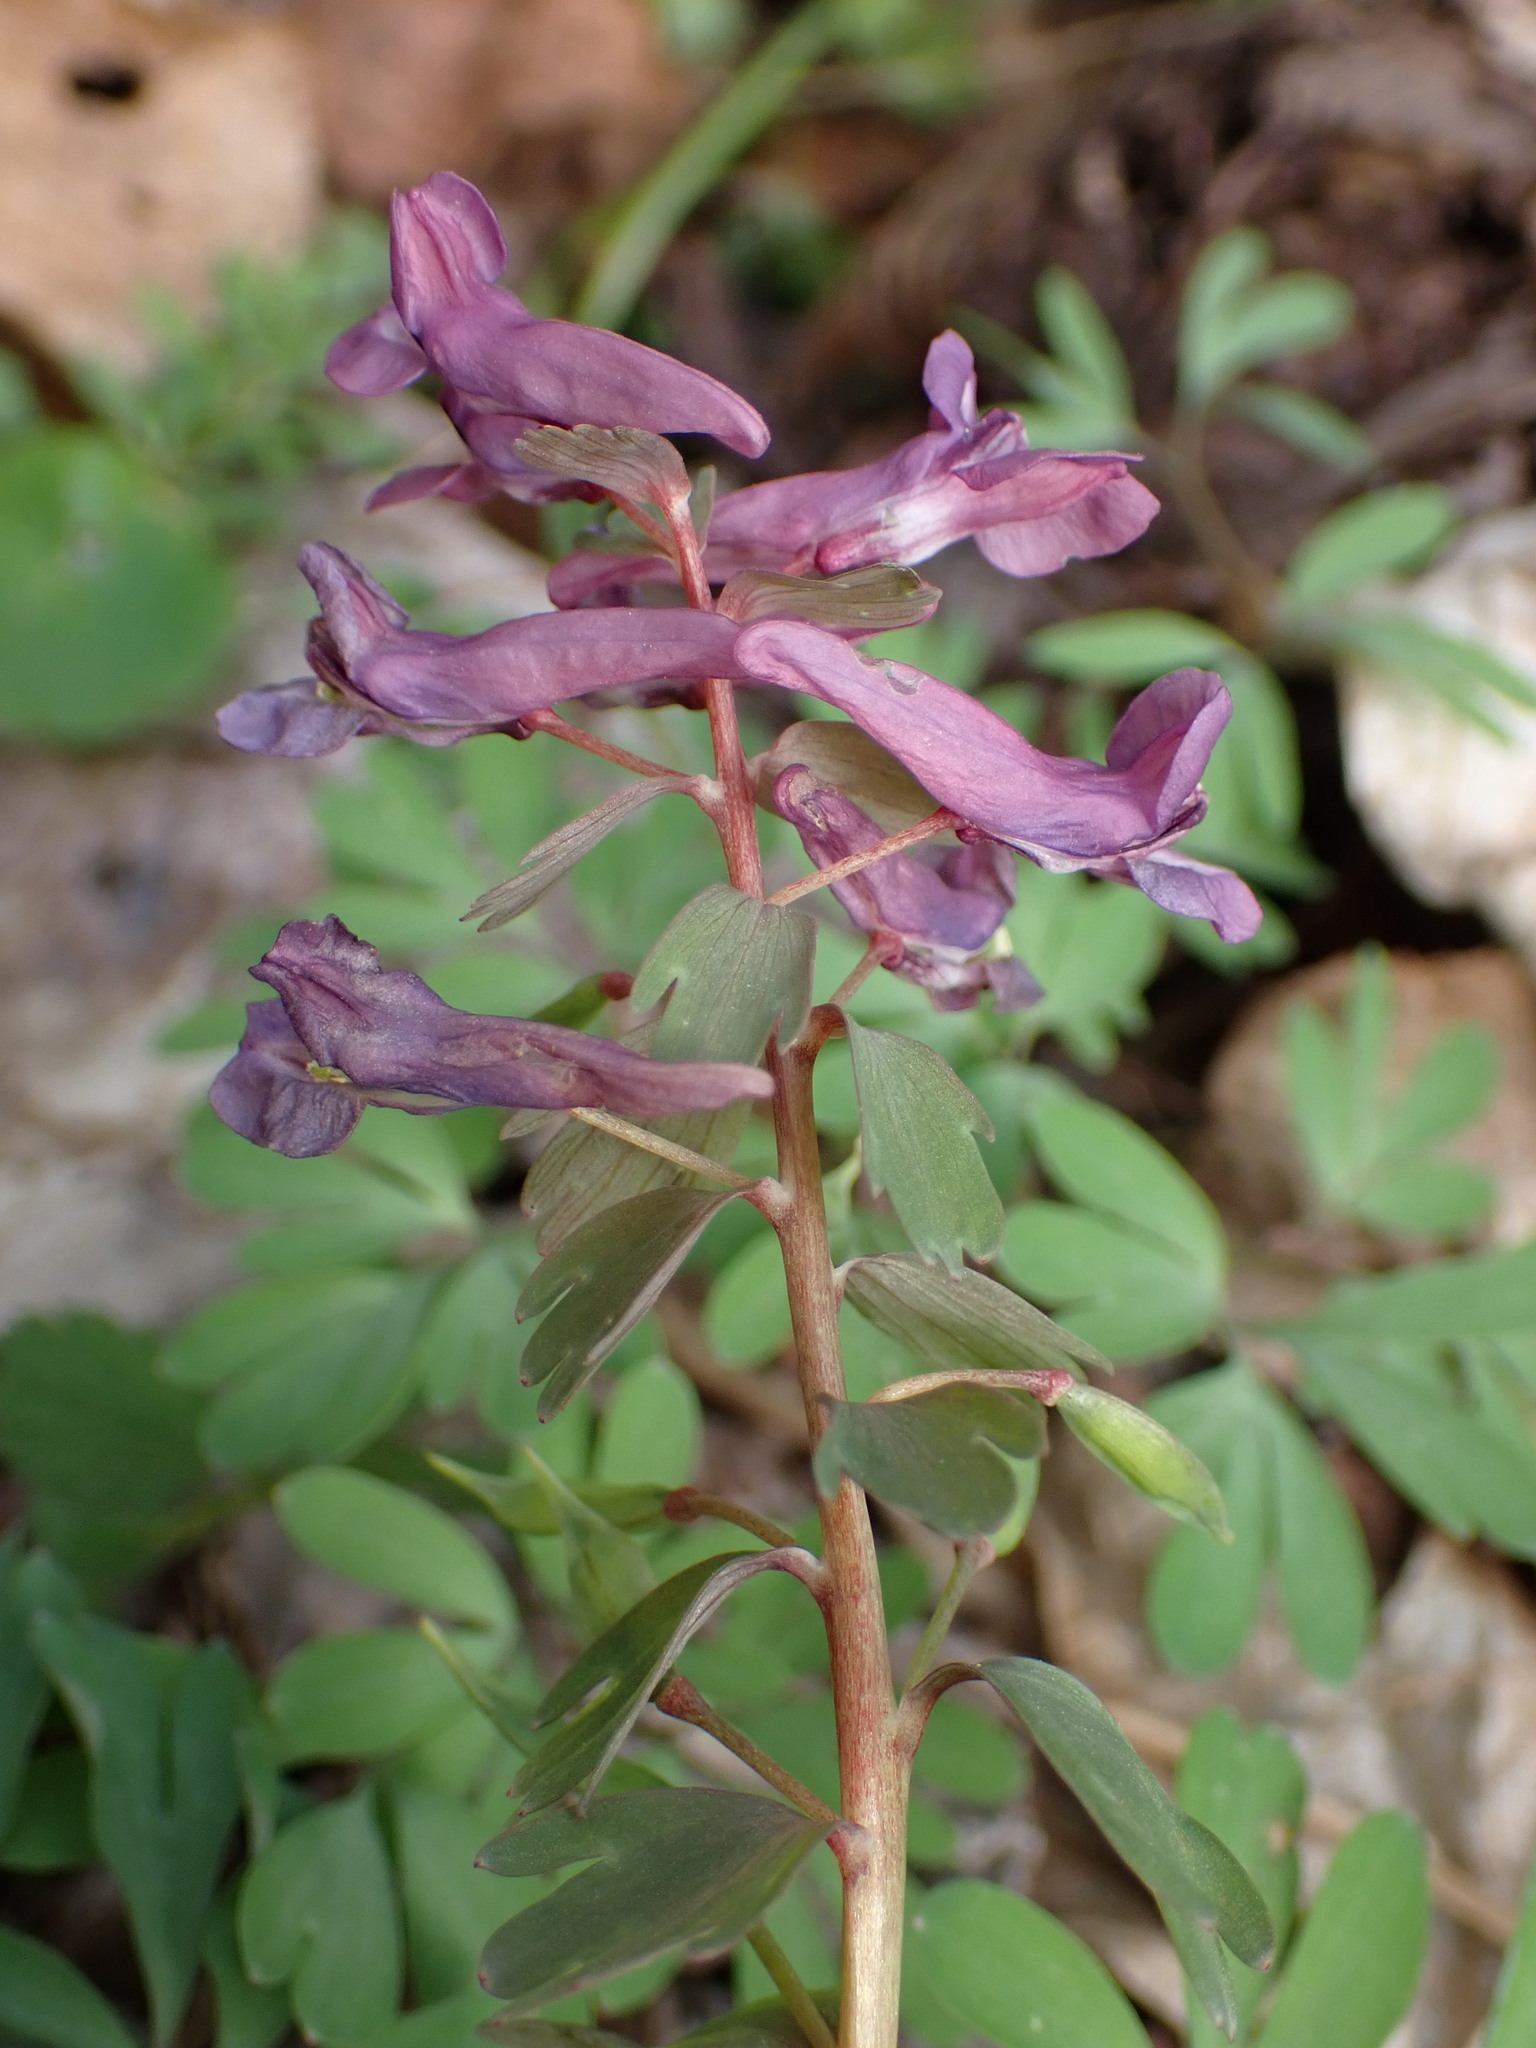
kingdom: Plantae
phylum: Tracheophyta
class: Magnoliopsida
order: Ranunculales
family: Papaveraceae
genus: Corydalis
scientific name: Corydalis solida
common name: Bird-in-a-bush
